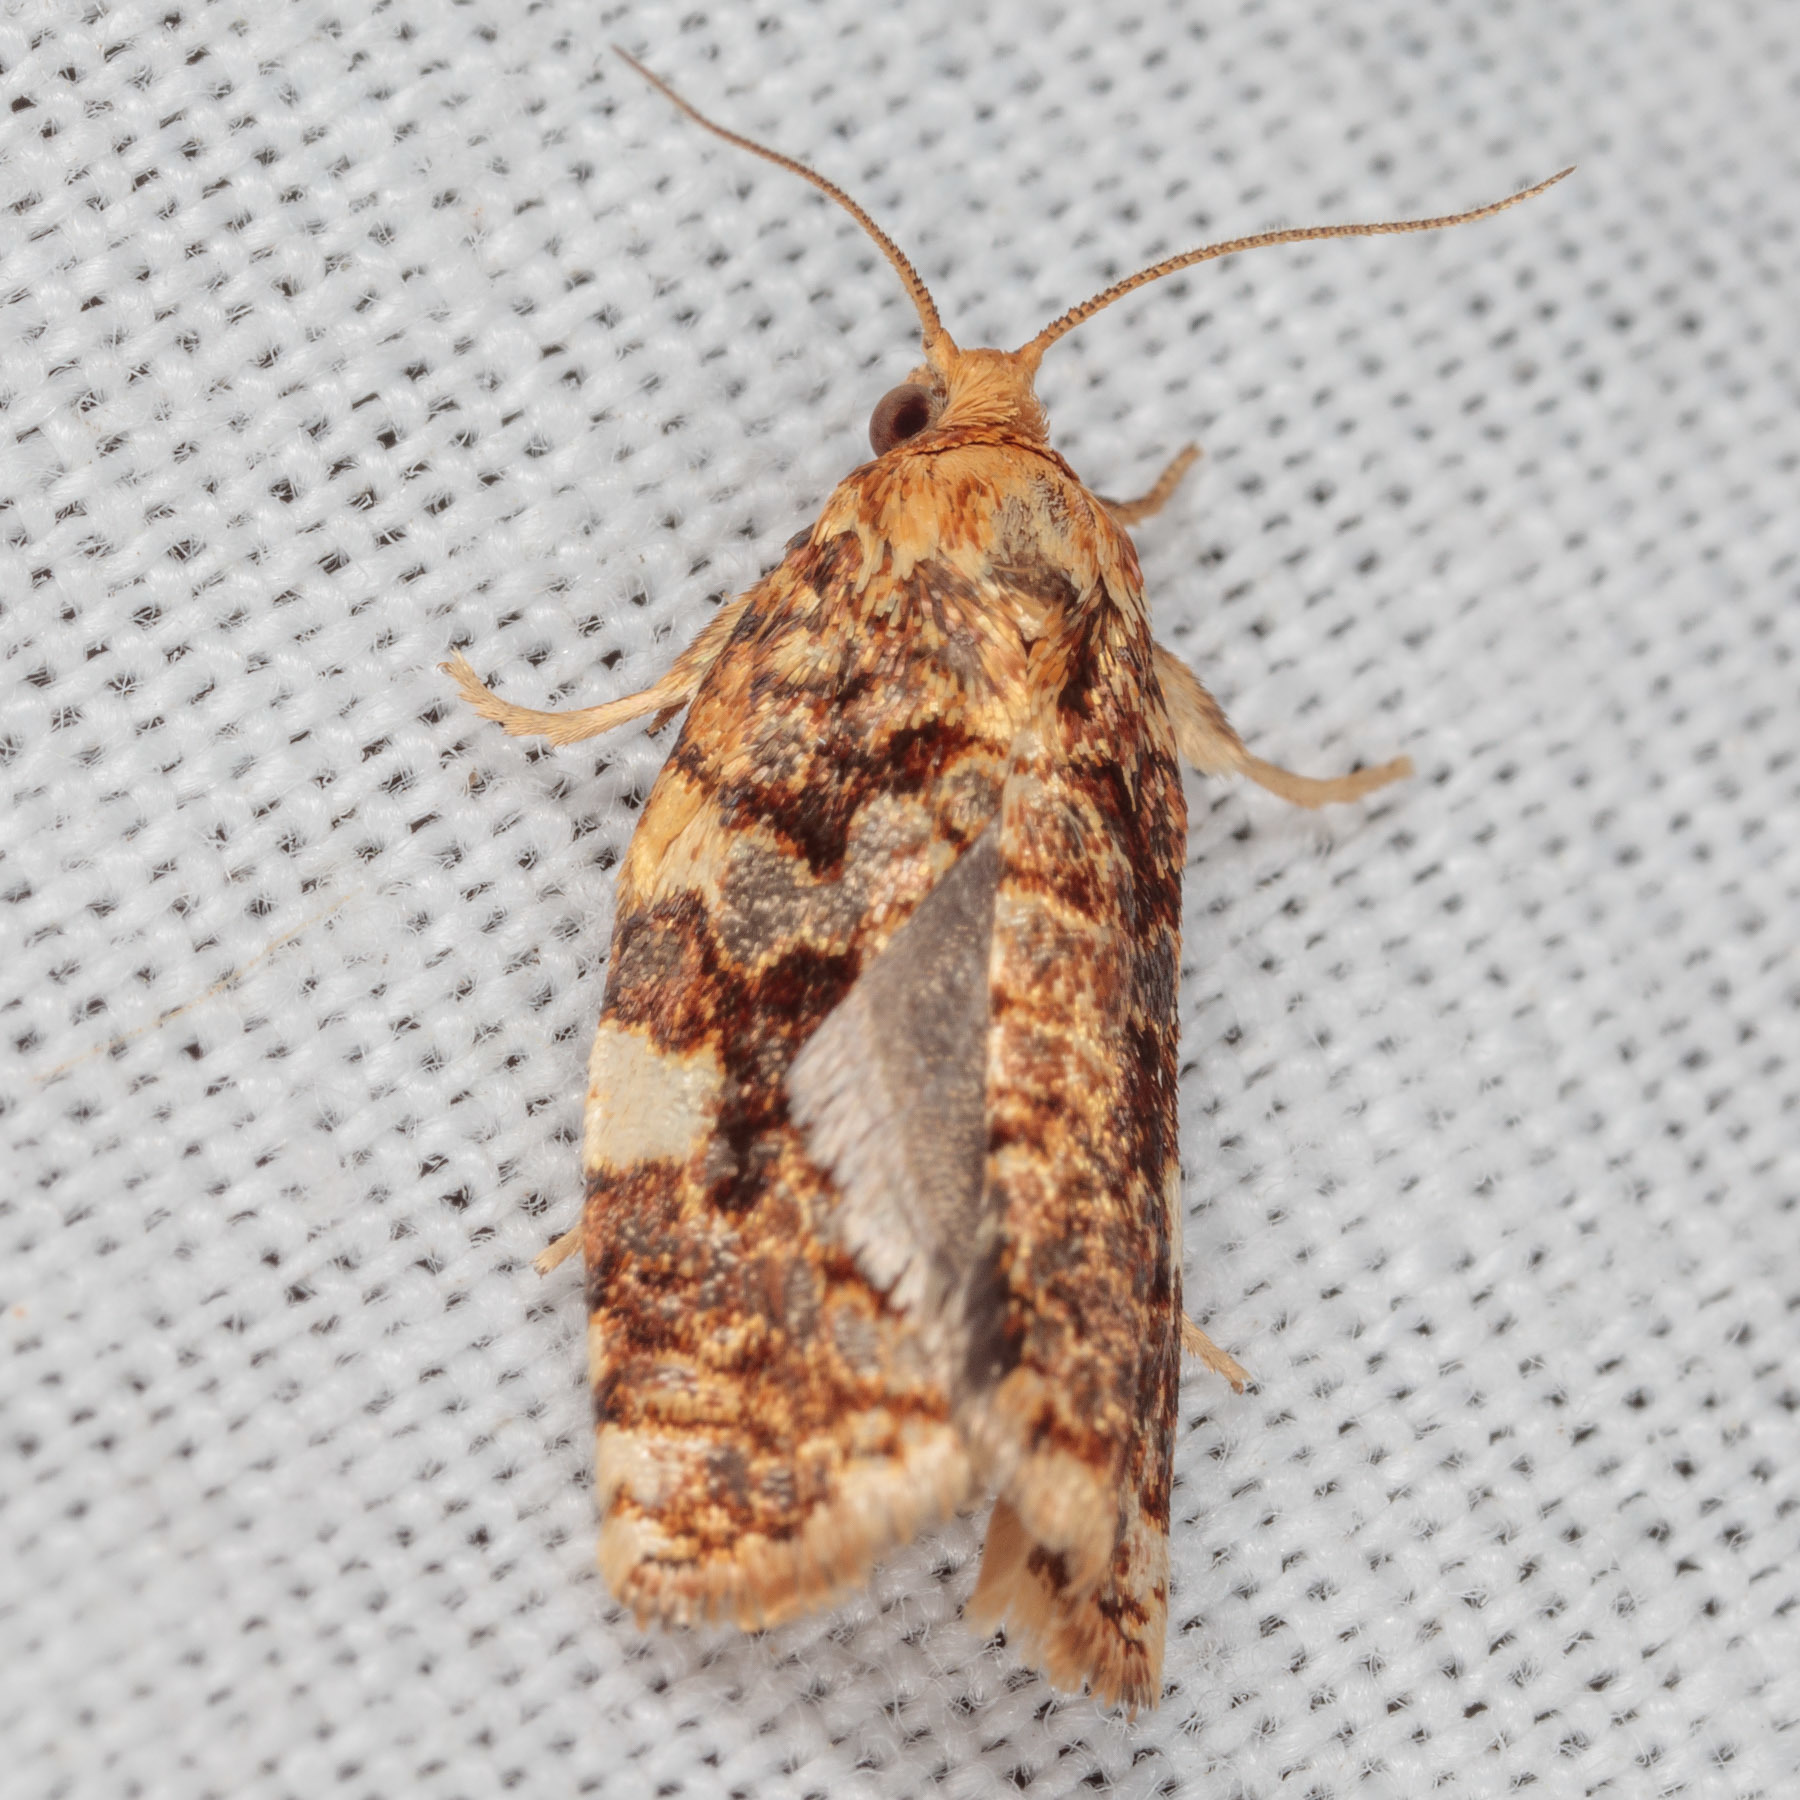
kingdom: Animalia
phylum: Arthropoda
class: Insecta
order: Lepidoptera
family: Tortricidae
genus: Archips
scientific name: Archips argyrospila
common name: Fruit-tree leafroller moth
